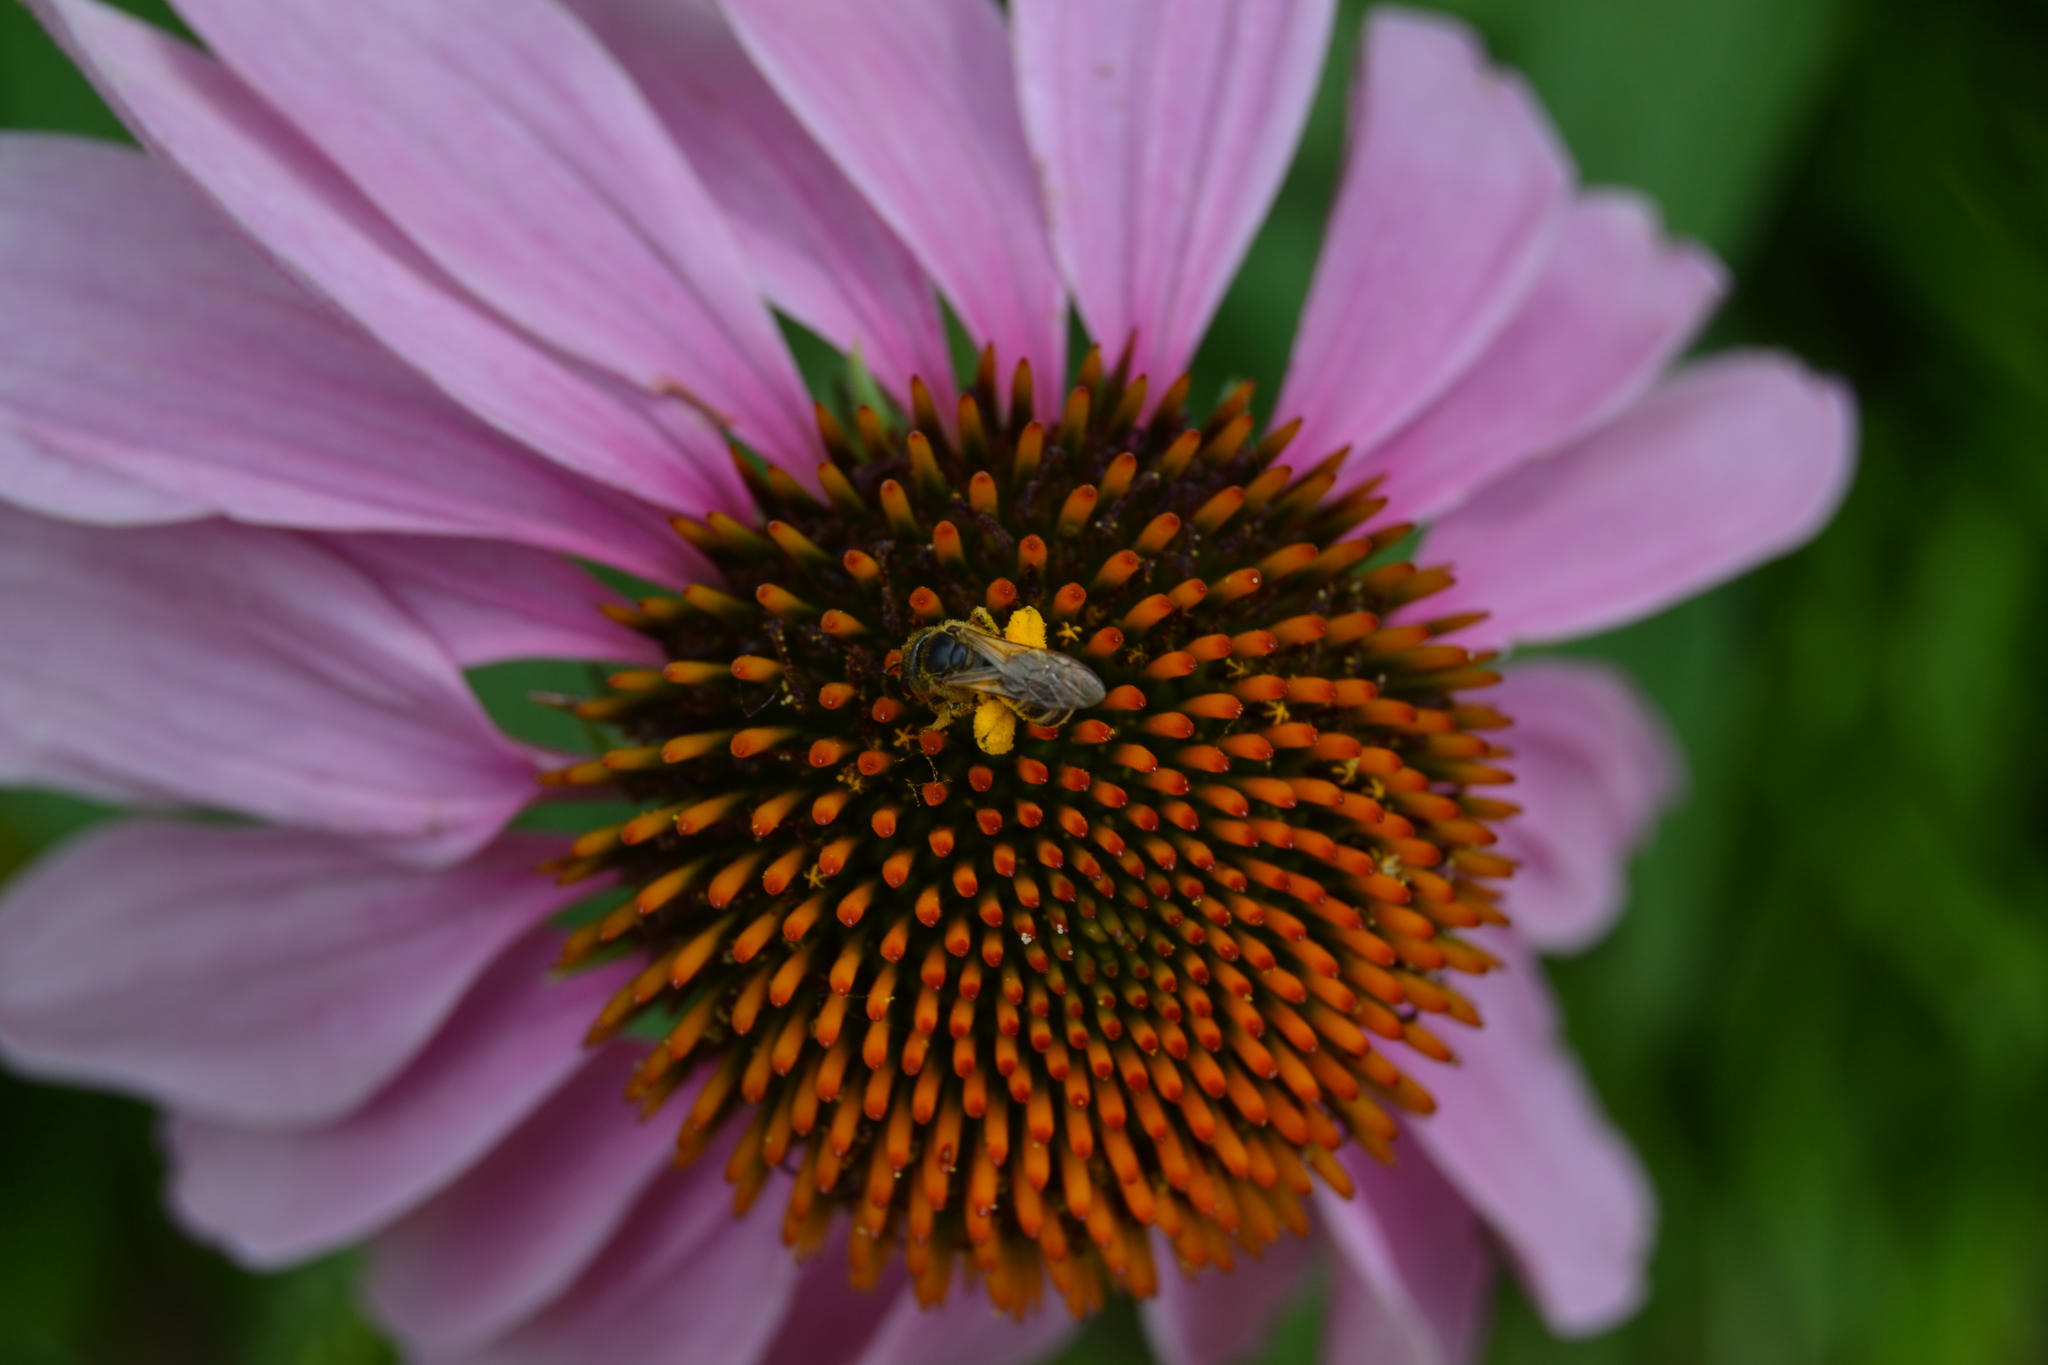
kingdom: Animalia
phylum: Arthropoda
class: Insecta
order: Hymenoptera
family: Halictidae
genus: Halictus
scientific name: Halictus ligatus
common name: Ligated furrow bee
